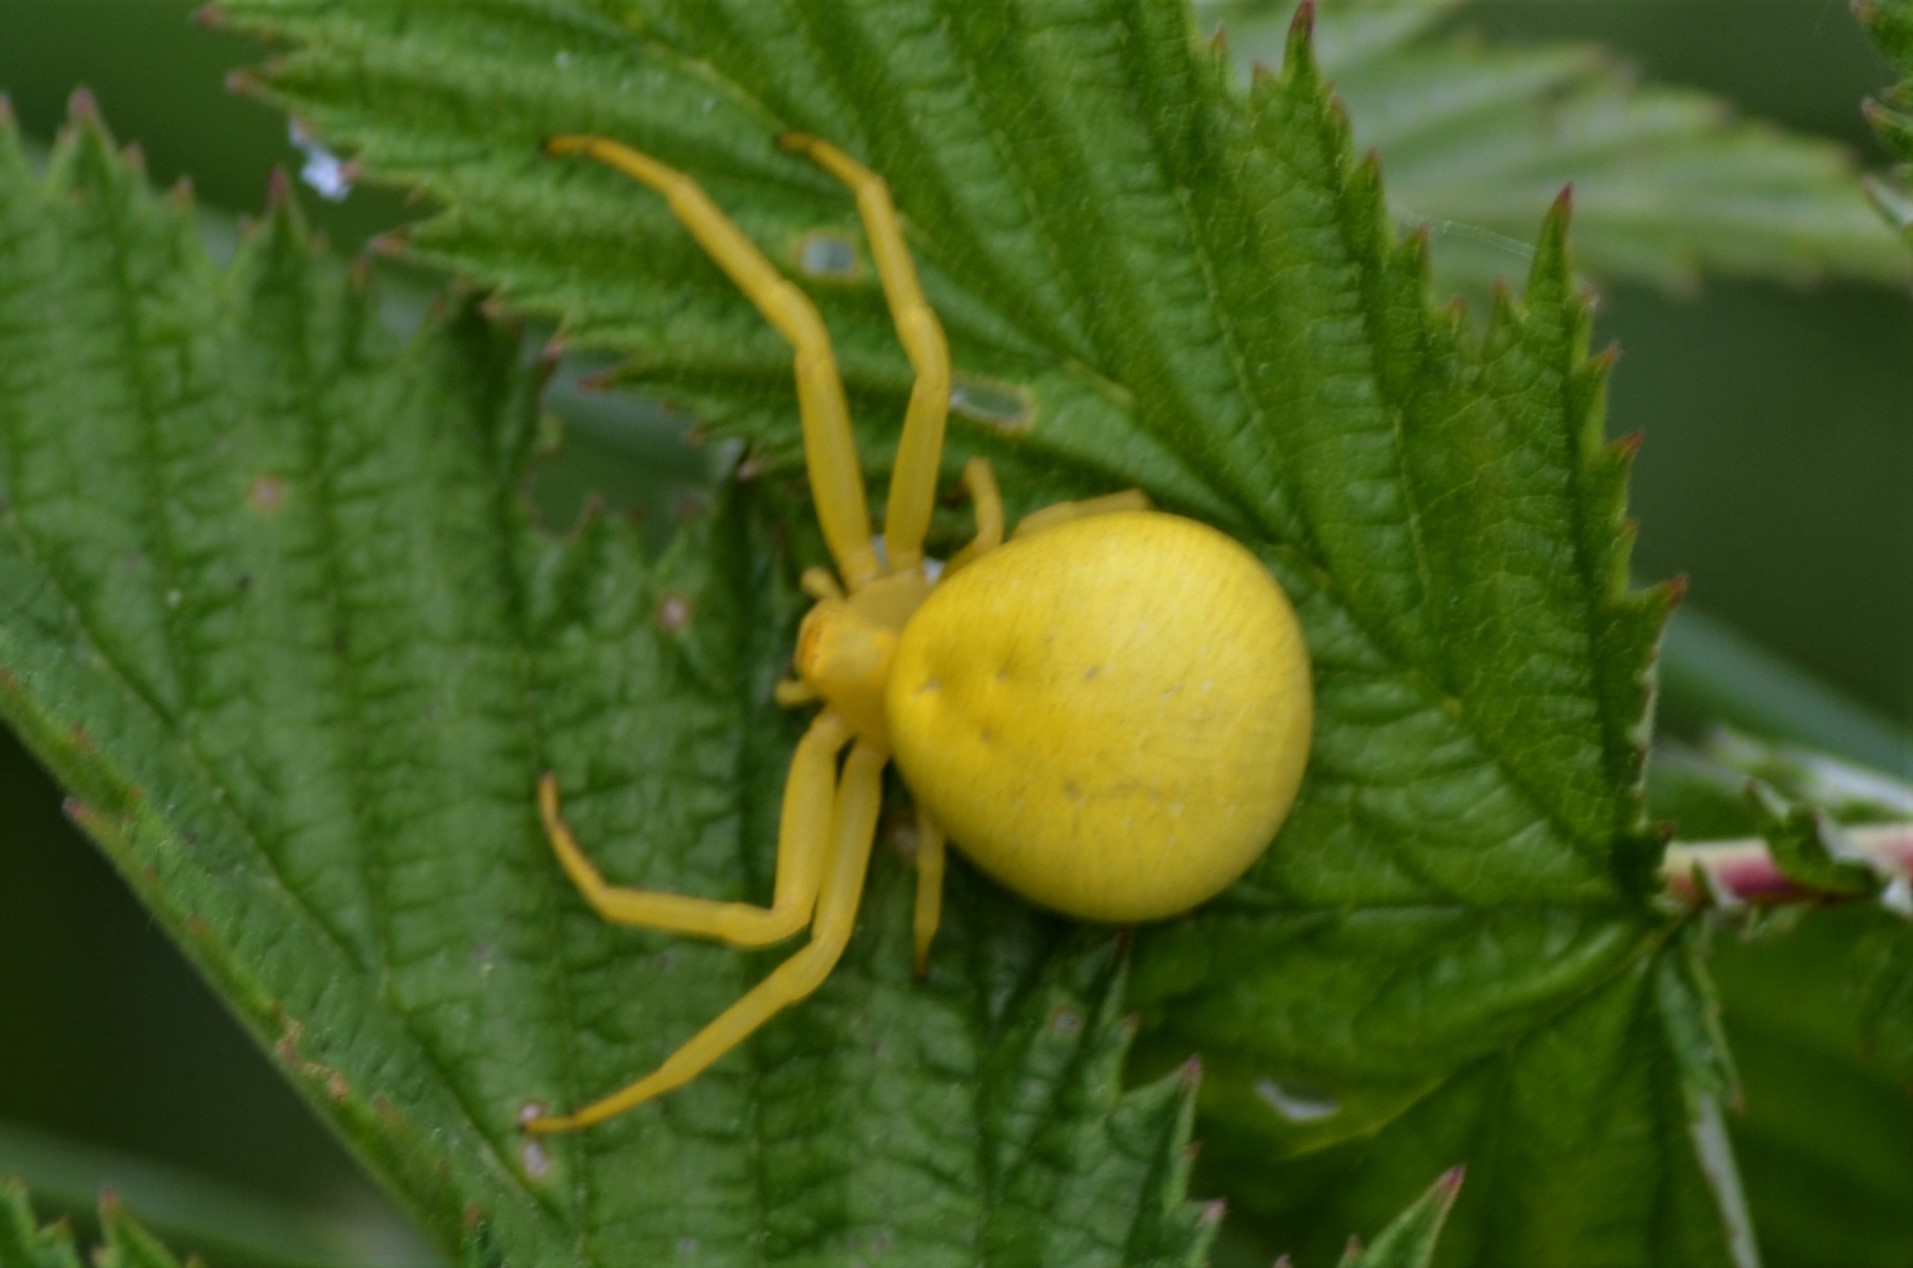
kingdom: Animalia
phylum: Arthropoda
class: Arachnida
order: Araneae
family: Thomisidae
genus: Misumena
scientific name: Misumena vatia
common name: Goldenrod crab spider
